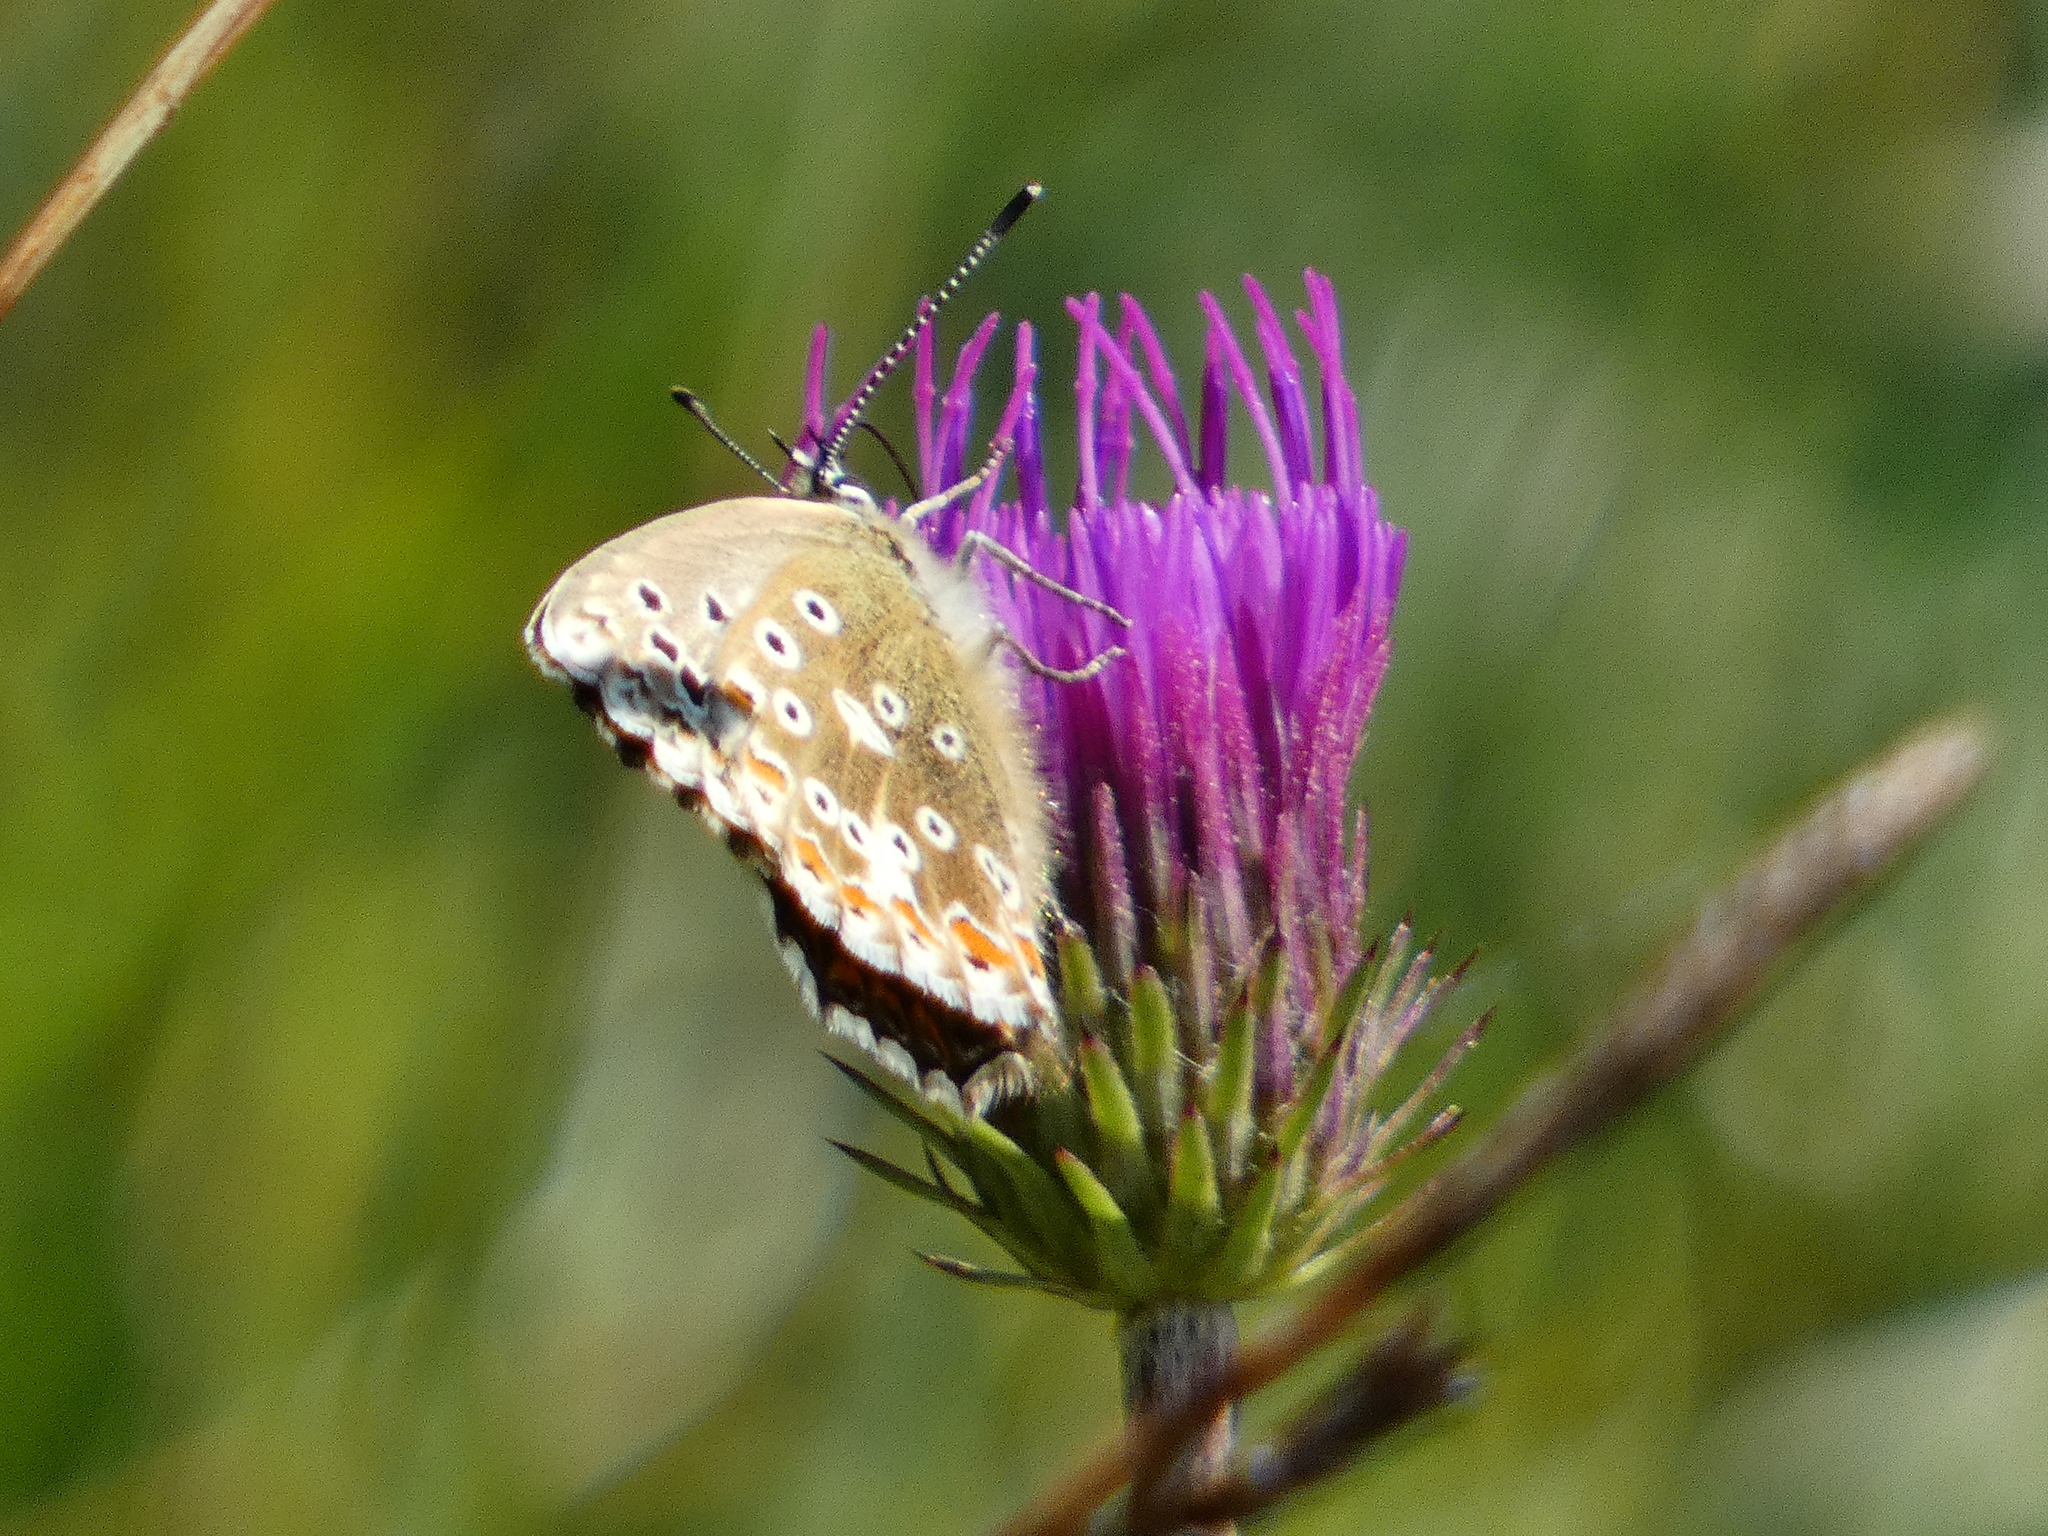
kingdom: Animalia
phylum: Arthropoda
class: Insecta
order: Lepidoptera
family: Lycaenidae
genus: Lysandra
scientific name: Lysandra coridon
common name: Chalkhill blue
